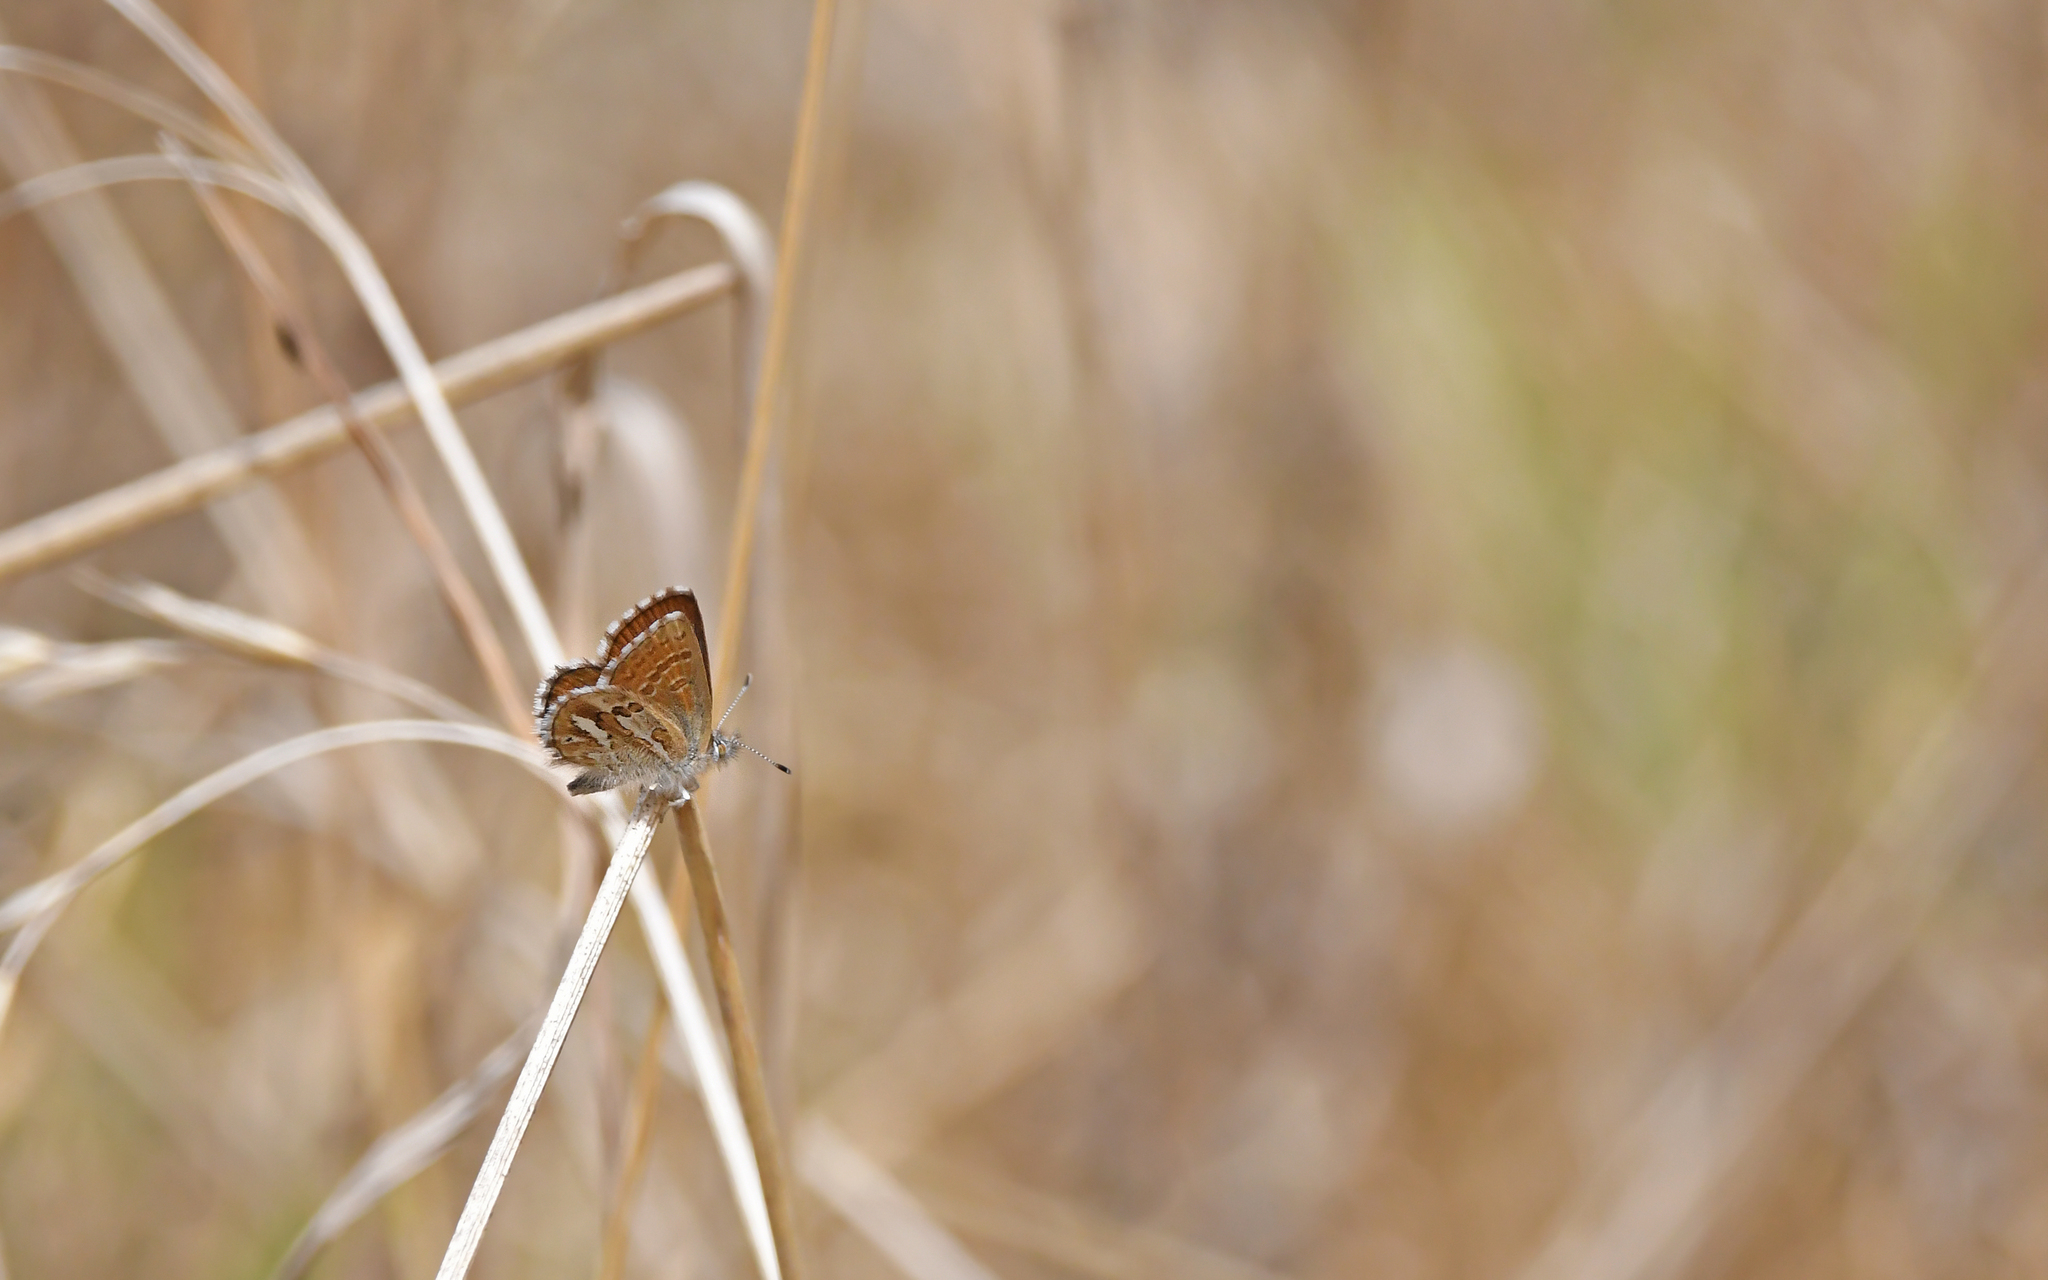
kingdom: Animalia
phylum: Arthropoda
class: Insecta
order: Lepidoptera
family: Lycaenidae
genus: Itylos
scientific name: Itylos koa
